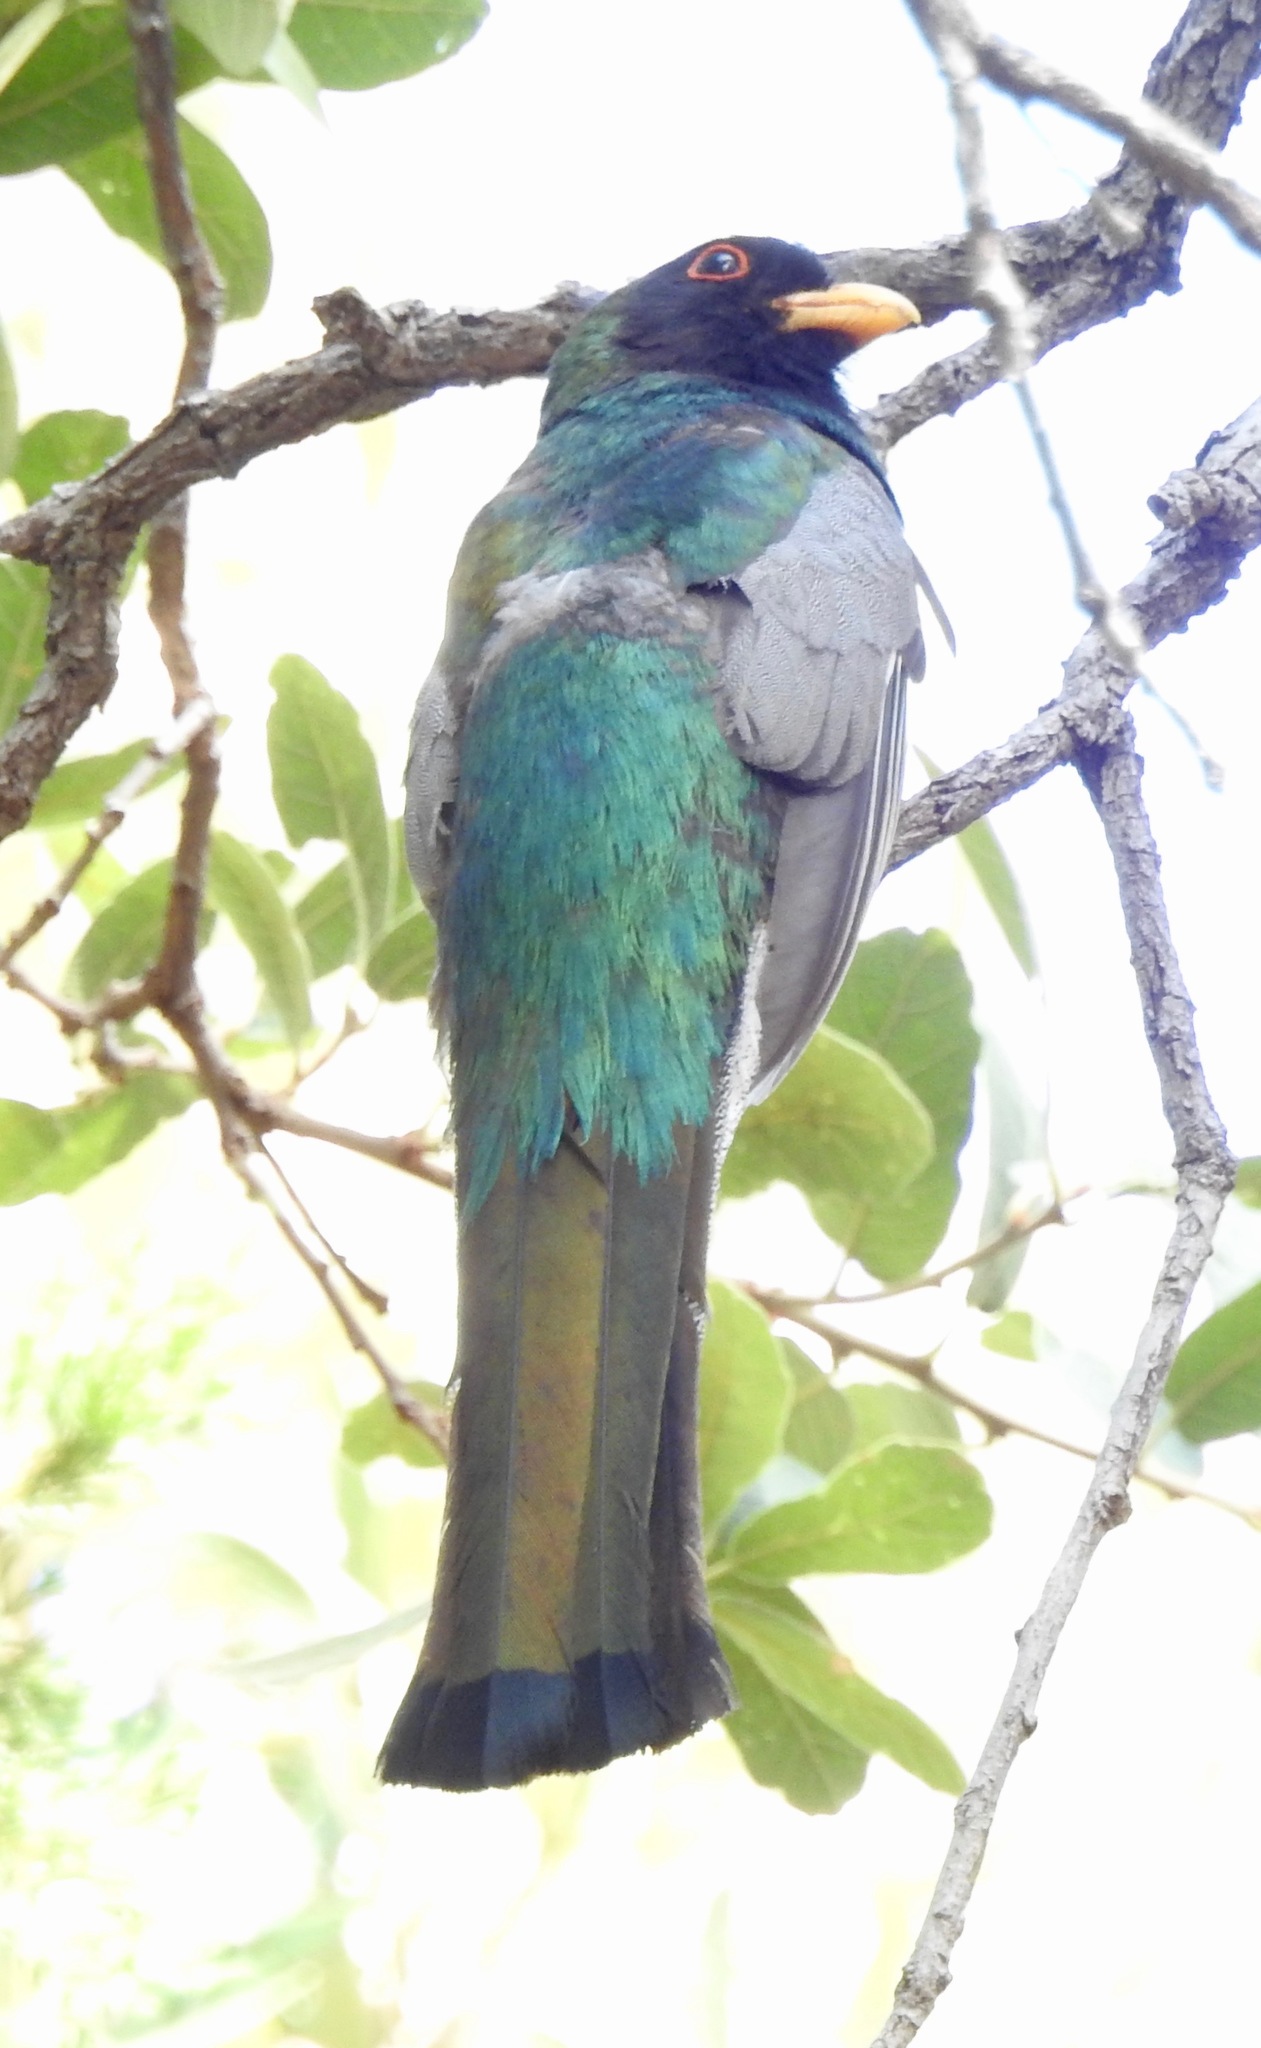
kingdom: Animalia
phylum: Chordata
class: Aves
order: Trogoniformes
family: Trogonidae
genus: Trogon
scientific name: Trogon elegans
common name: Elegant trogon
